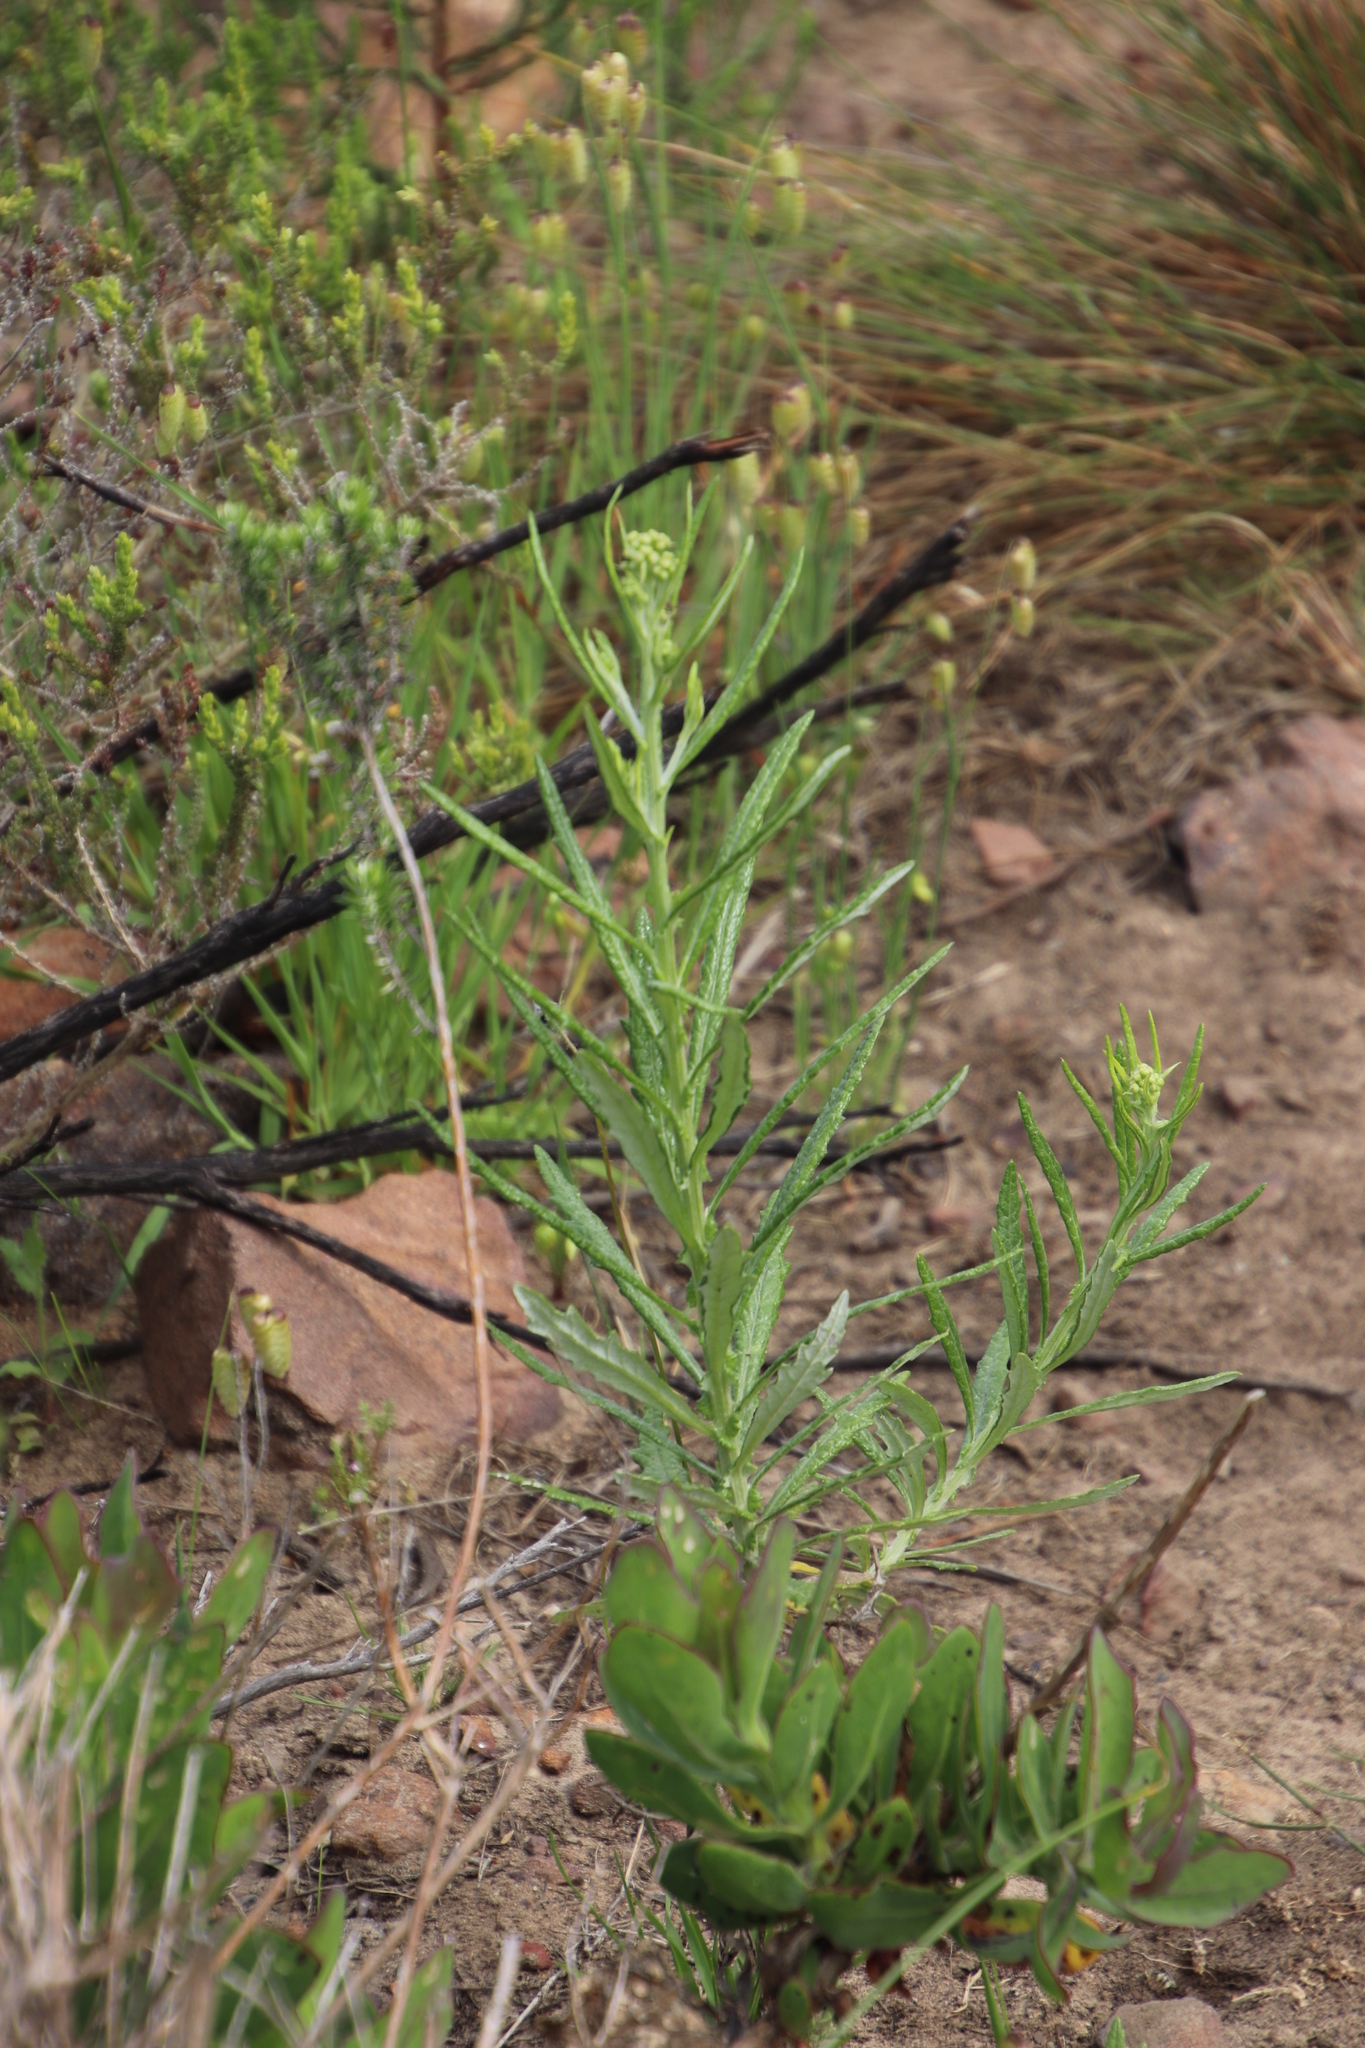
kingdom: Plantae
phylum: Tracheophyta
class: Magnoliopsida
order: Asterales
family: Asteraceae
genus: Senecio
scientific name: Senecio pterophorus
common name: Shoddy ragwort
